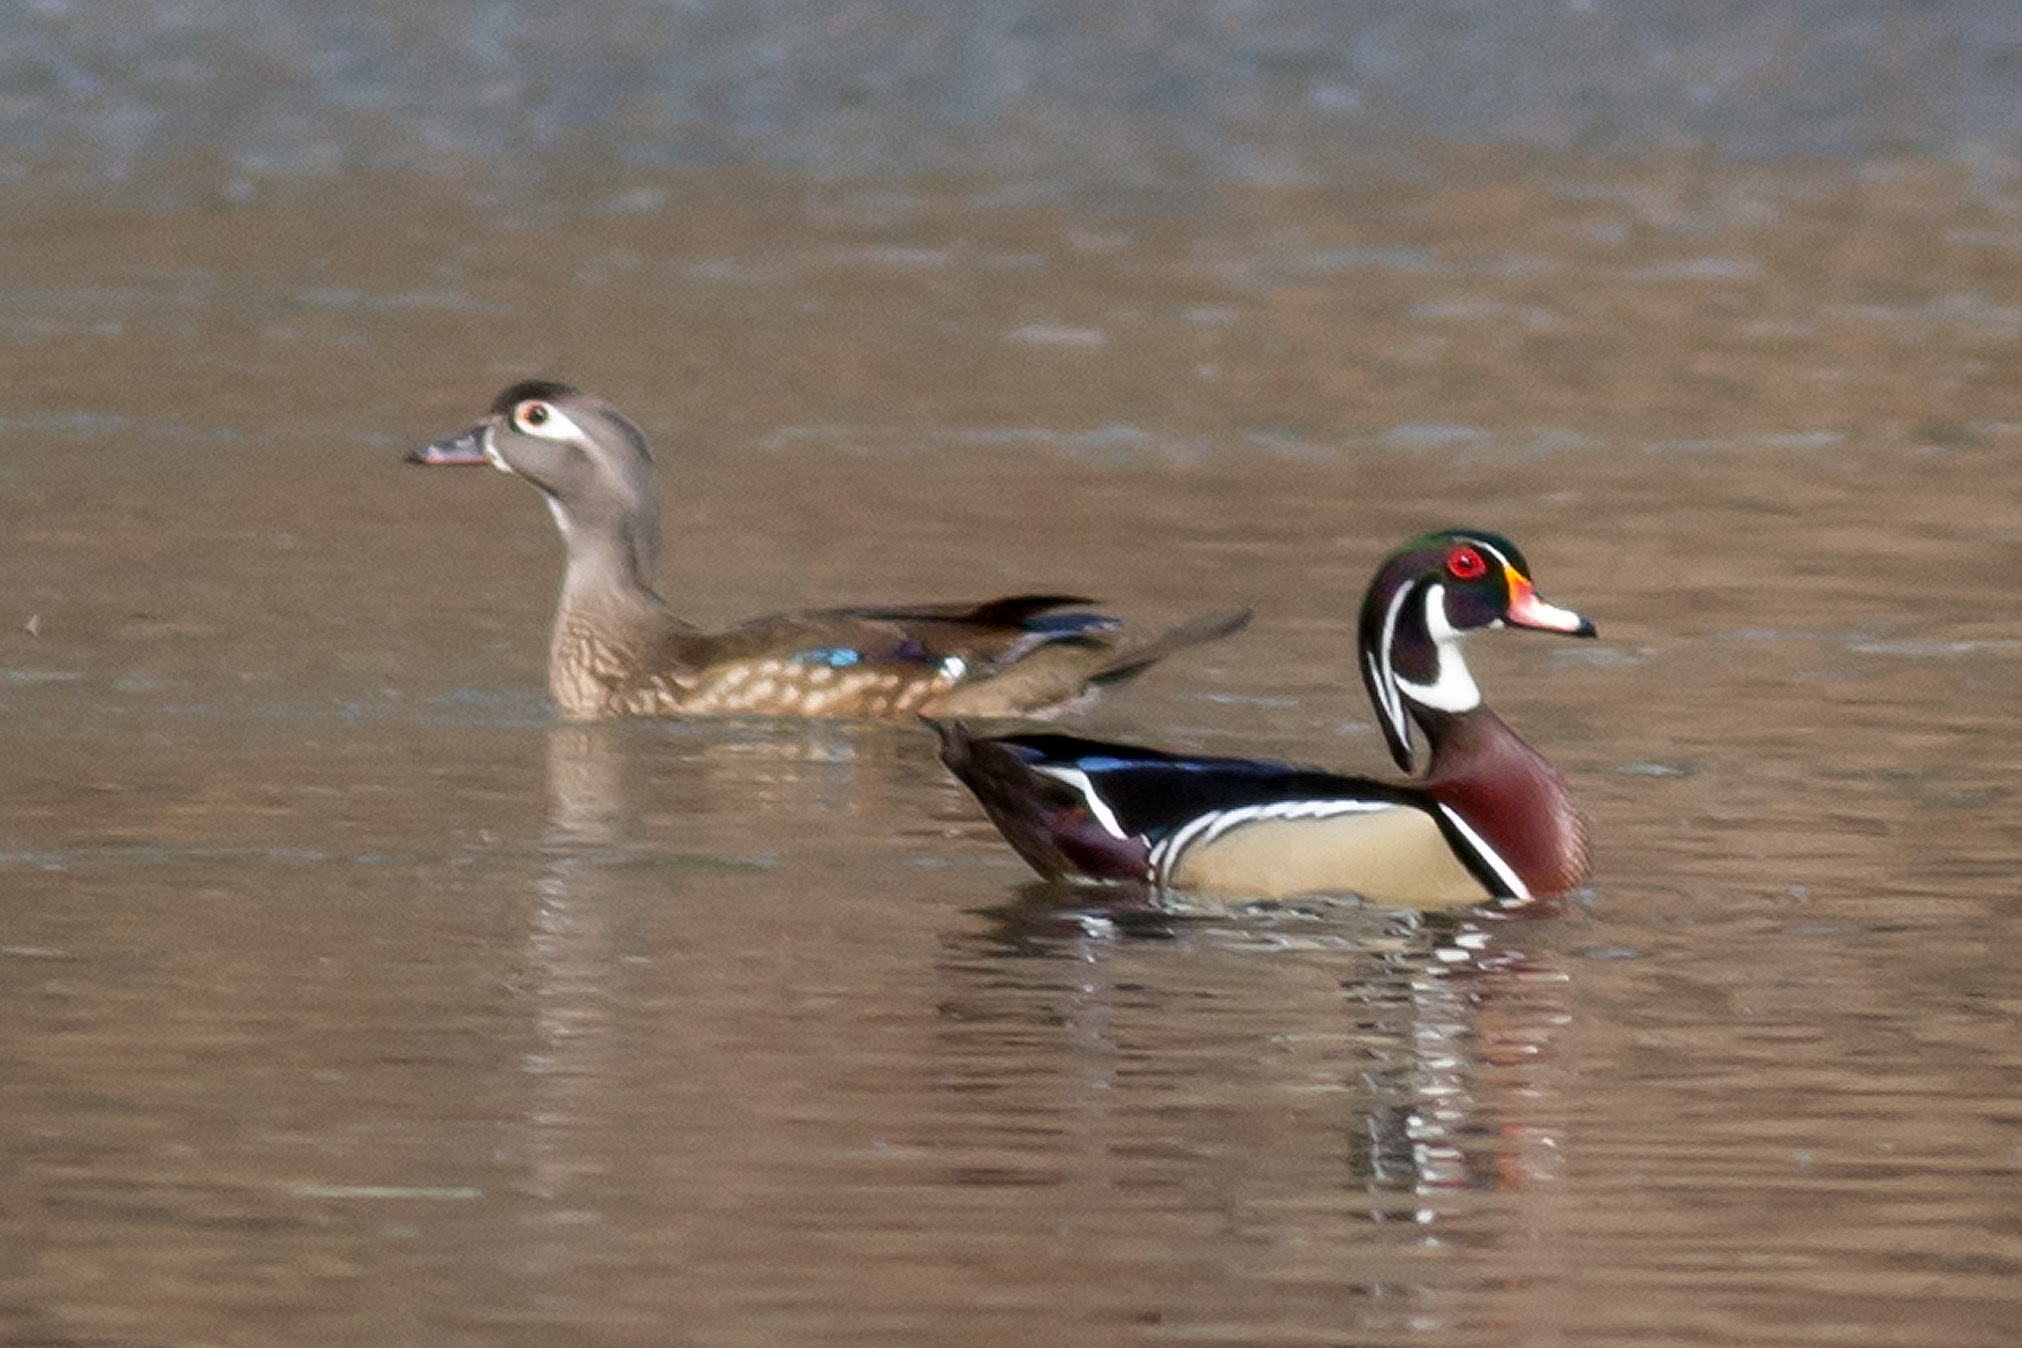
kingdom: Animalia
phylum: Chordata
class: Aves
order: Anseriformes
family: Anatidae
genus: Aix
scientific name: Aix sponsa
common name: Wood duck
